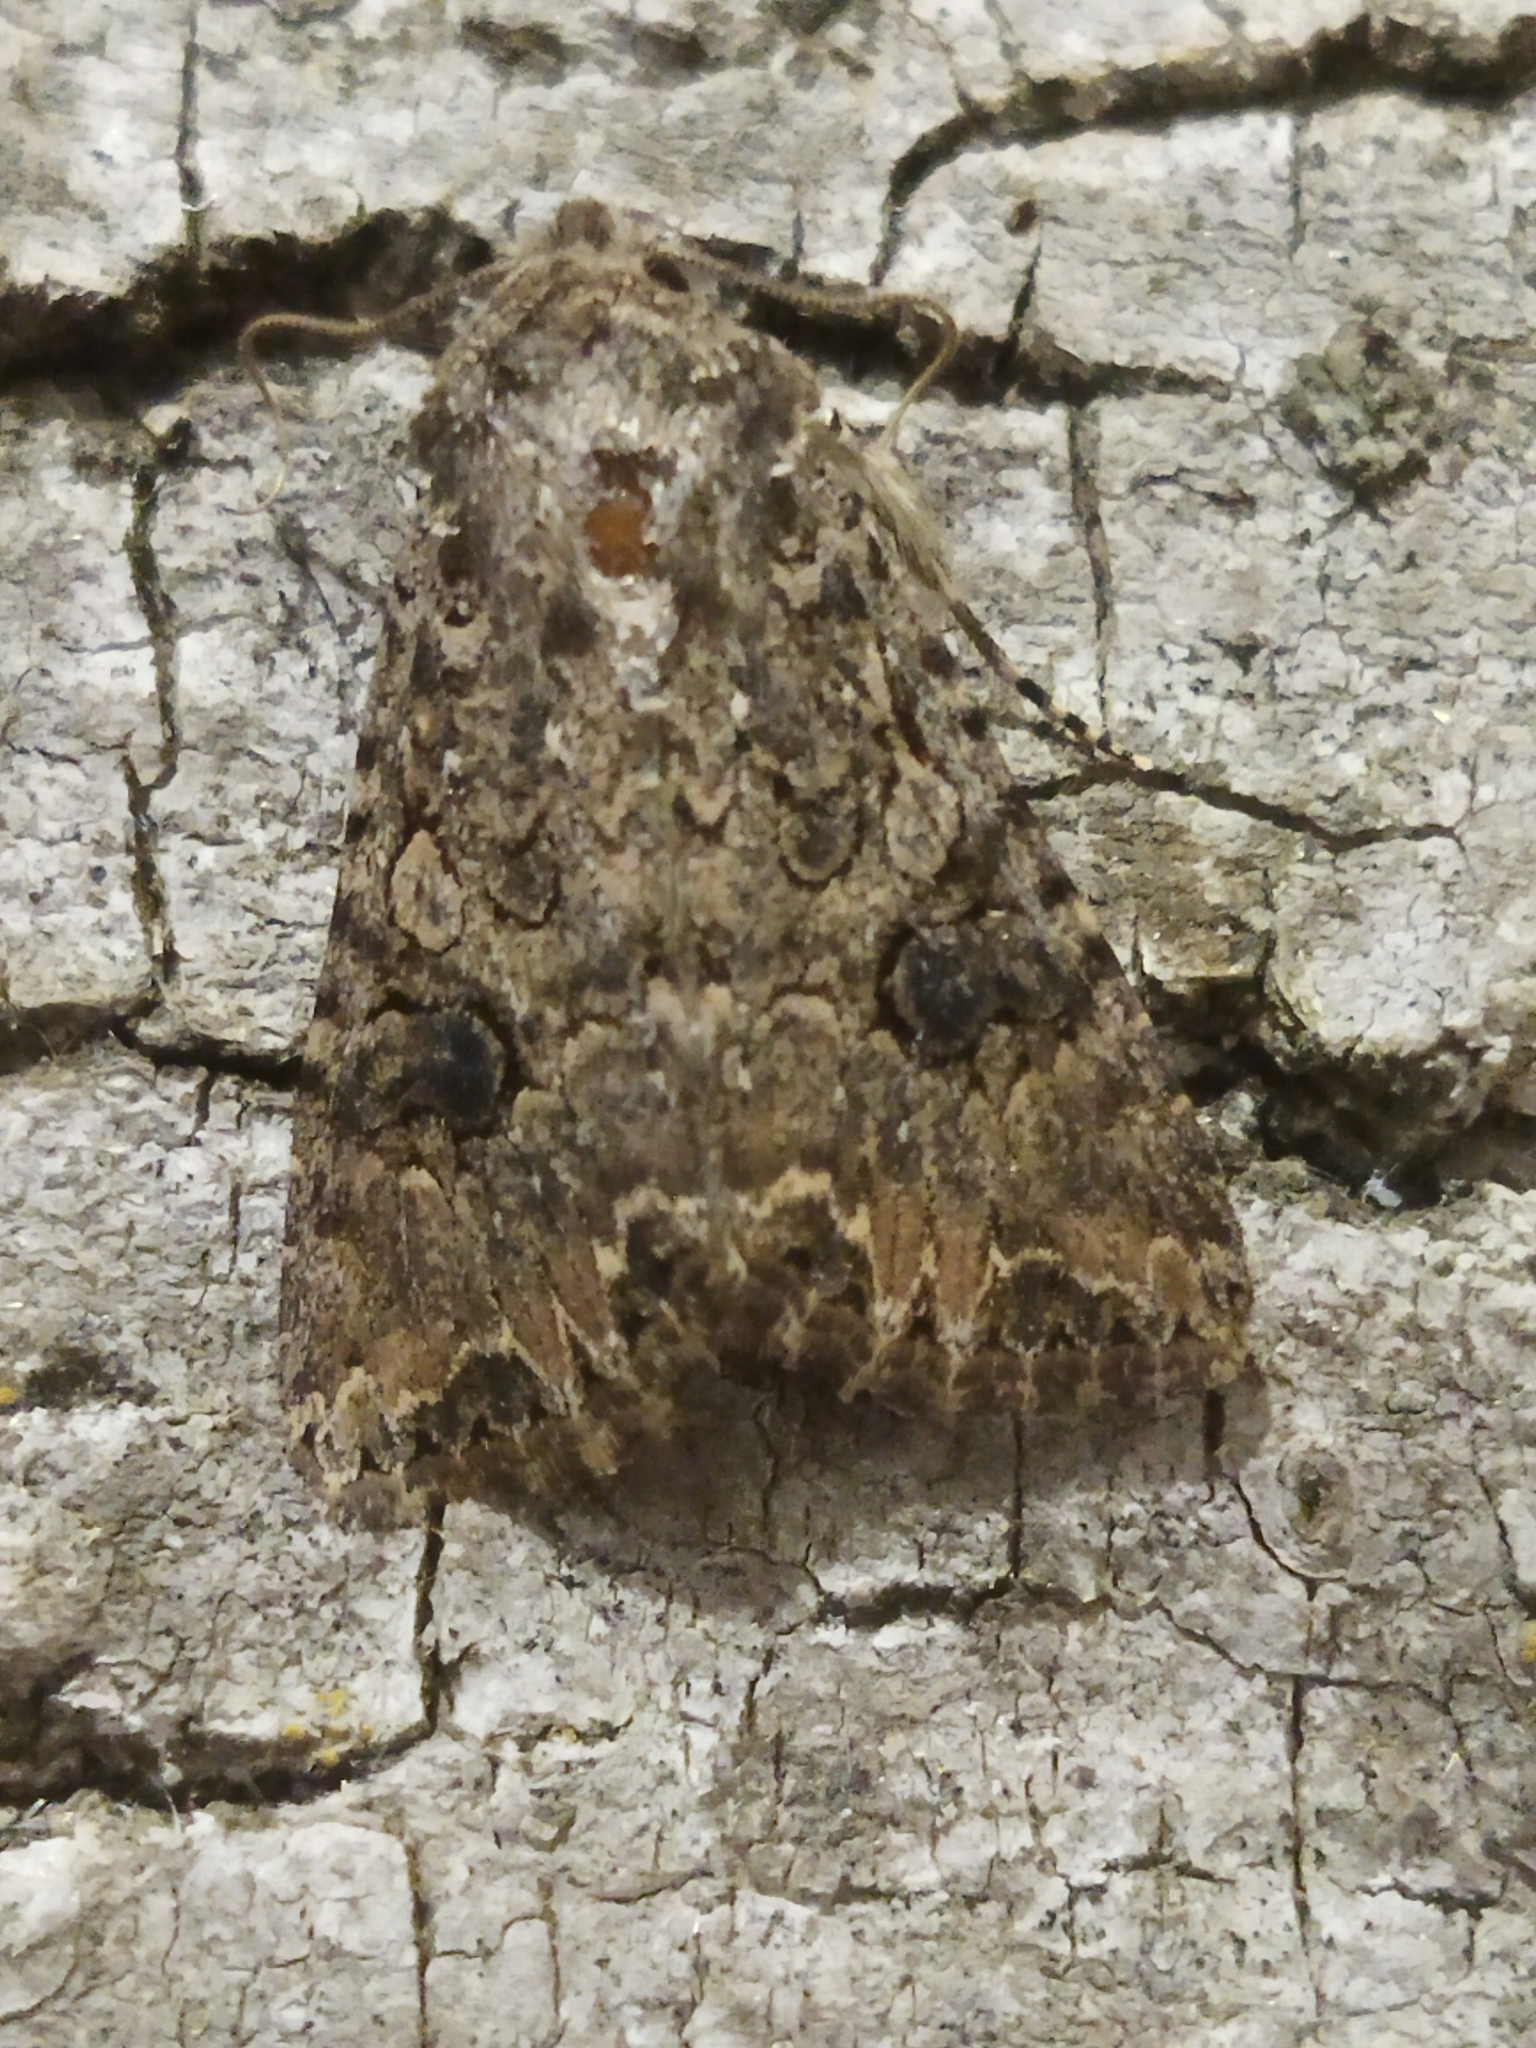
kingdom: Animalia
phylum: Arthropoda
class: Insecta
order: Lepidoptera
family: Noctuidae
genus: Anarta
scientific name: Anarta trifolii
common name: Clover cutworm moth
